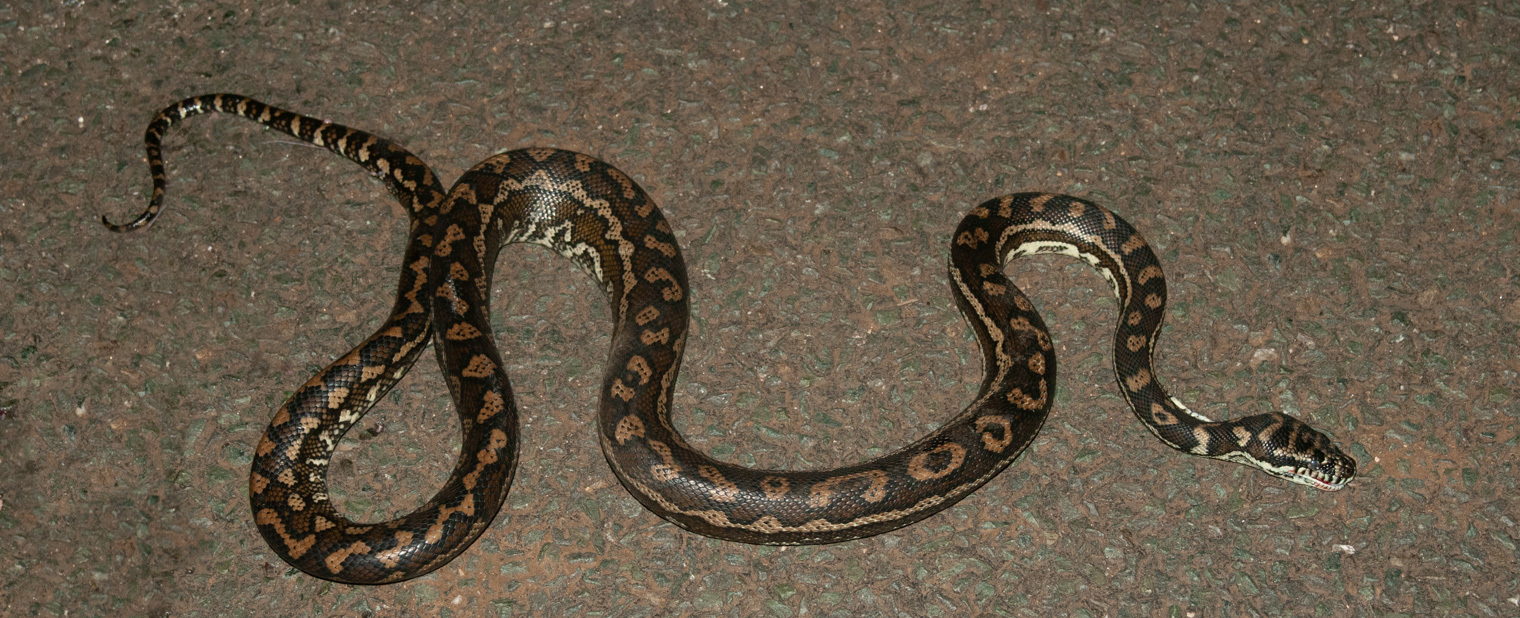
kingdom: Animalia
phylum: Chordata
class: Squamata
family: Pythonidae
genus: Morelia
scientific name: Morelia spilota
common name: Carpet python
